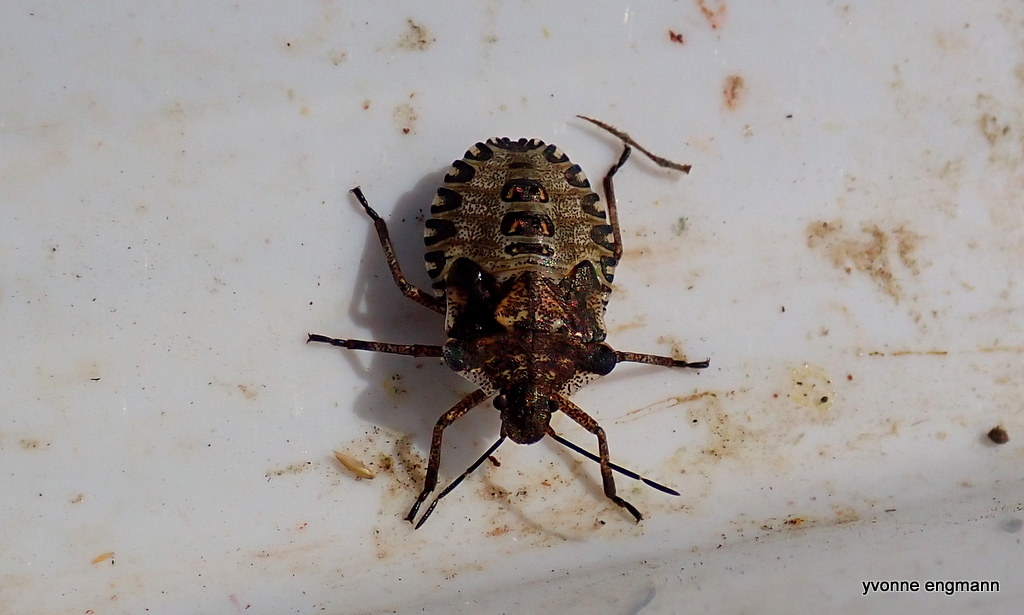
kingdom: Animalia
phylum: Arthropoda
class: Insecta
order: Hemiptera
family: Pentatomidae
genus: Pentatoma
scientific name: Pentatoma rufipes
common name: Forest bug
